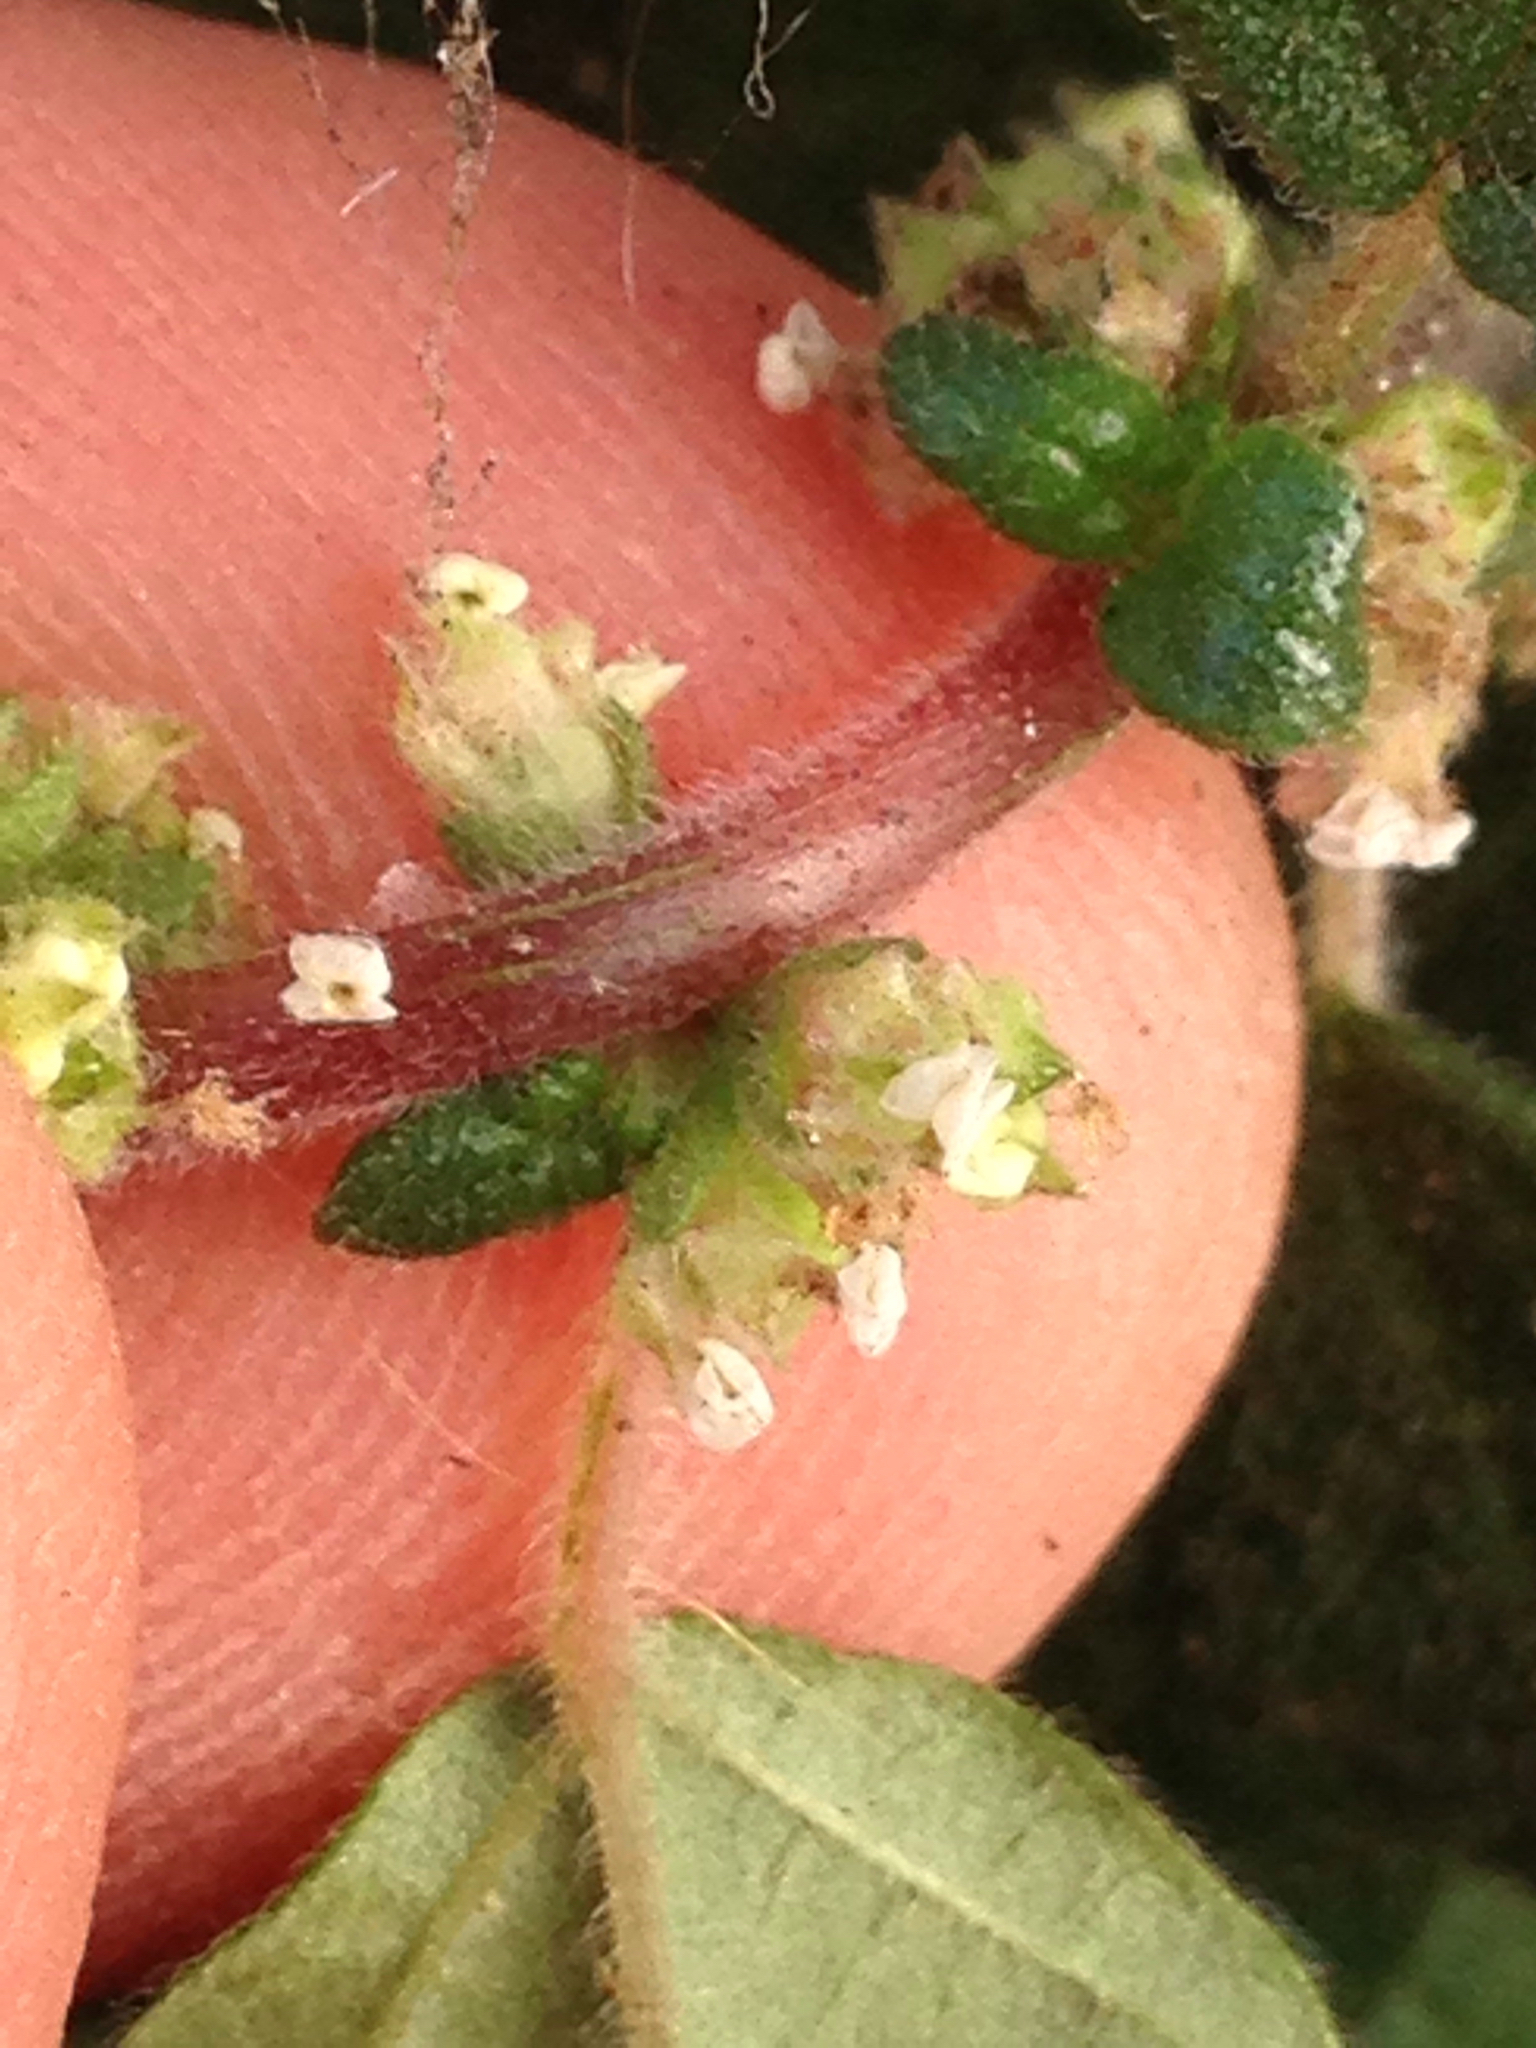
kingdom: Plantae
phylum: Tracheophyta
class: Magnoliopsida
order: Rosales
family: Urticaceae
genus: Parietaria
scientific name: Parietaria judaica
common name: Pellitory-of-the-wall
